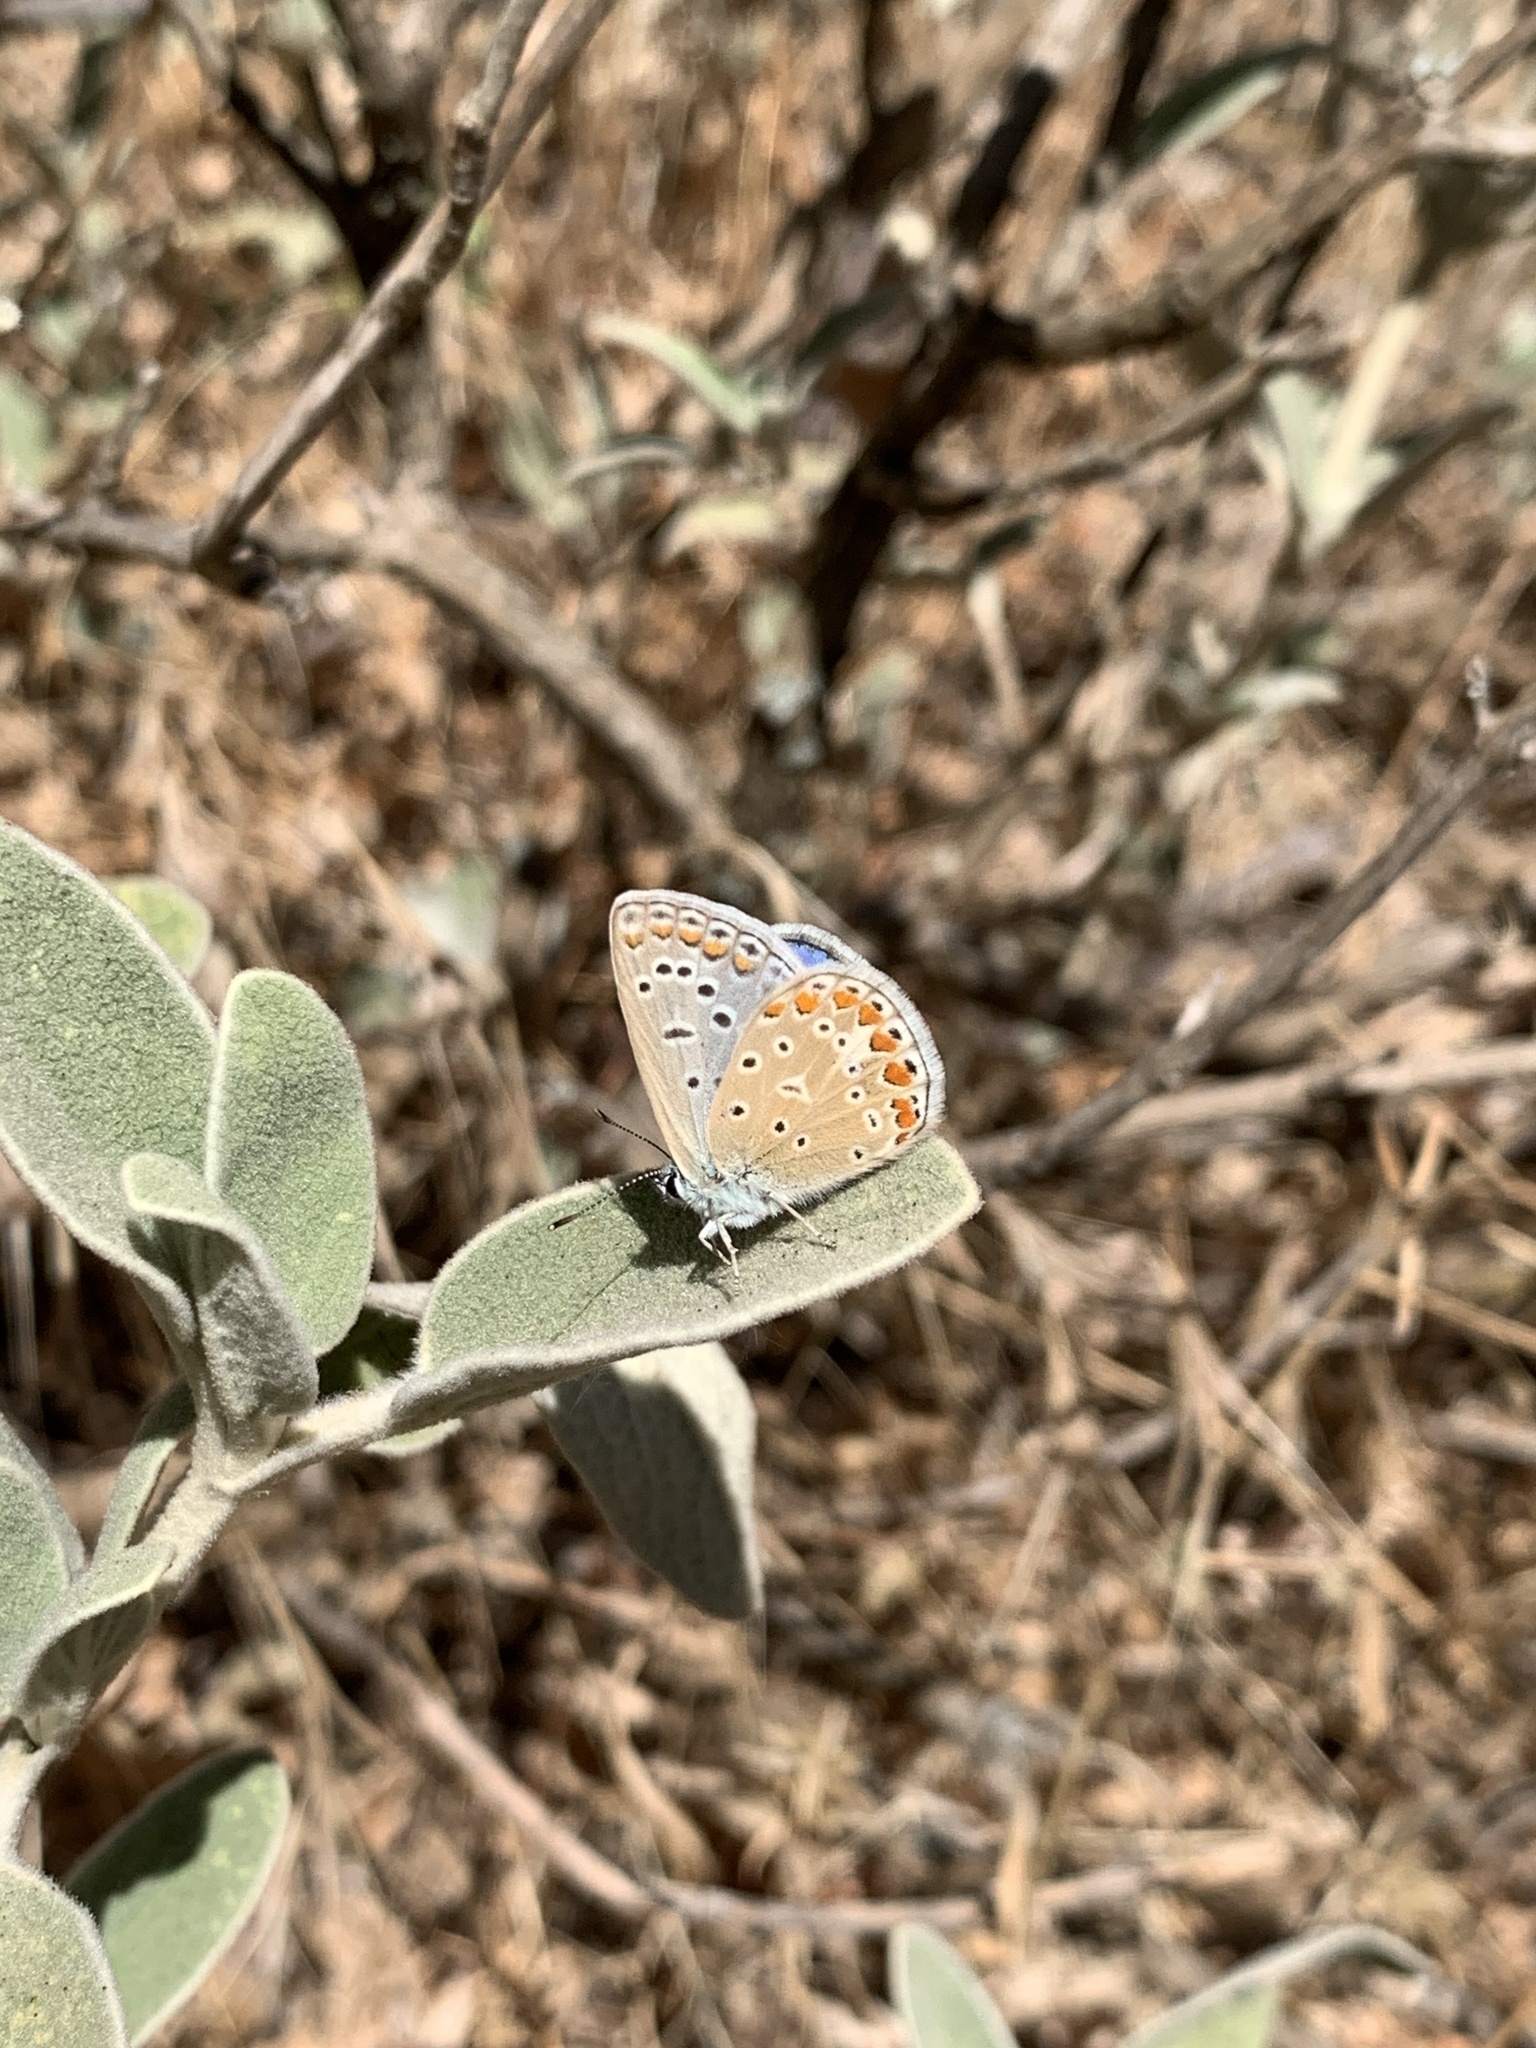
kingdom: Animalia
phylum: Arthropoda
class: Insecta
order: Lepidoptera
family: Lycaenidae
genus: Polyommatus
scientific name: Polyommatus icarus
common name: Common blue
